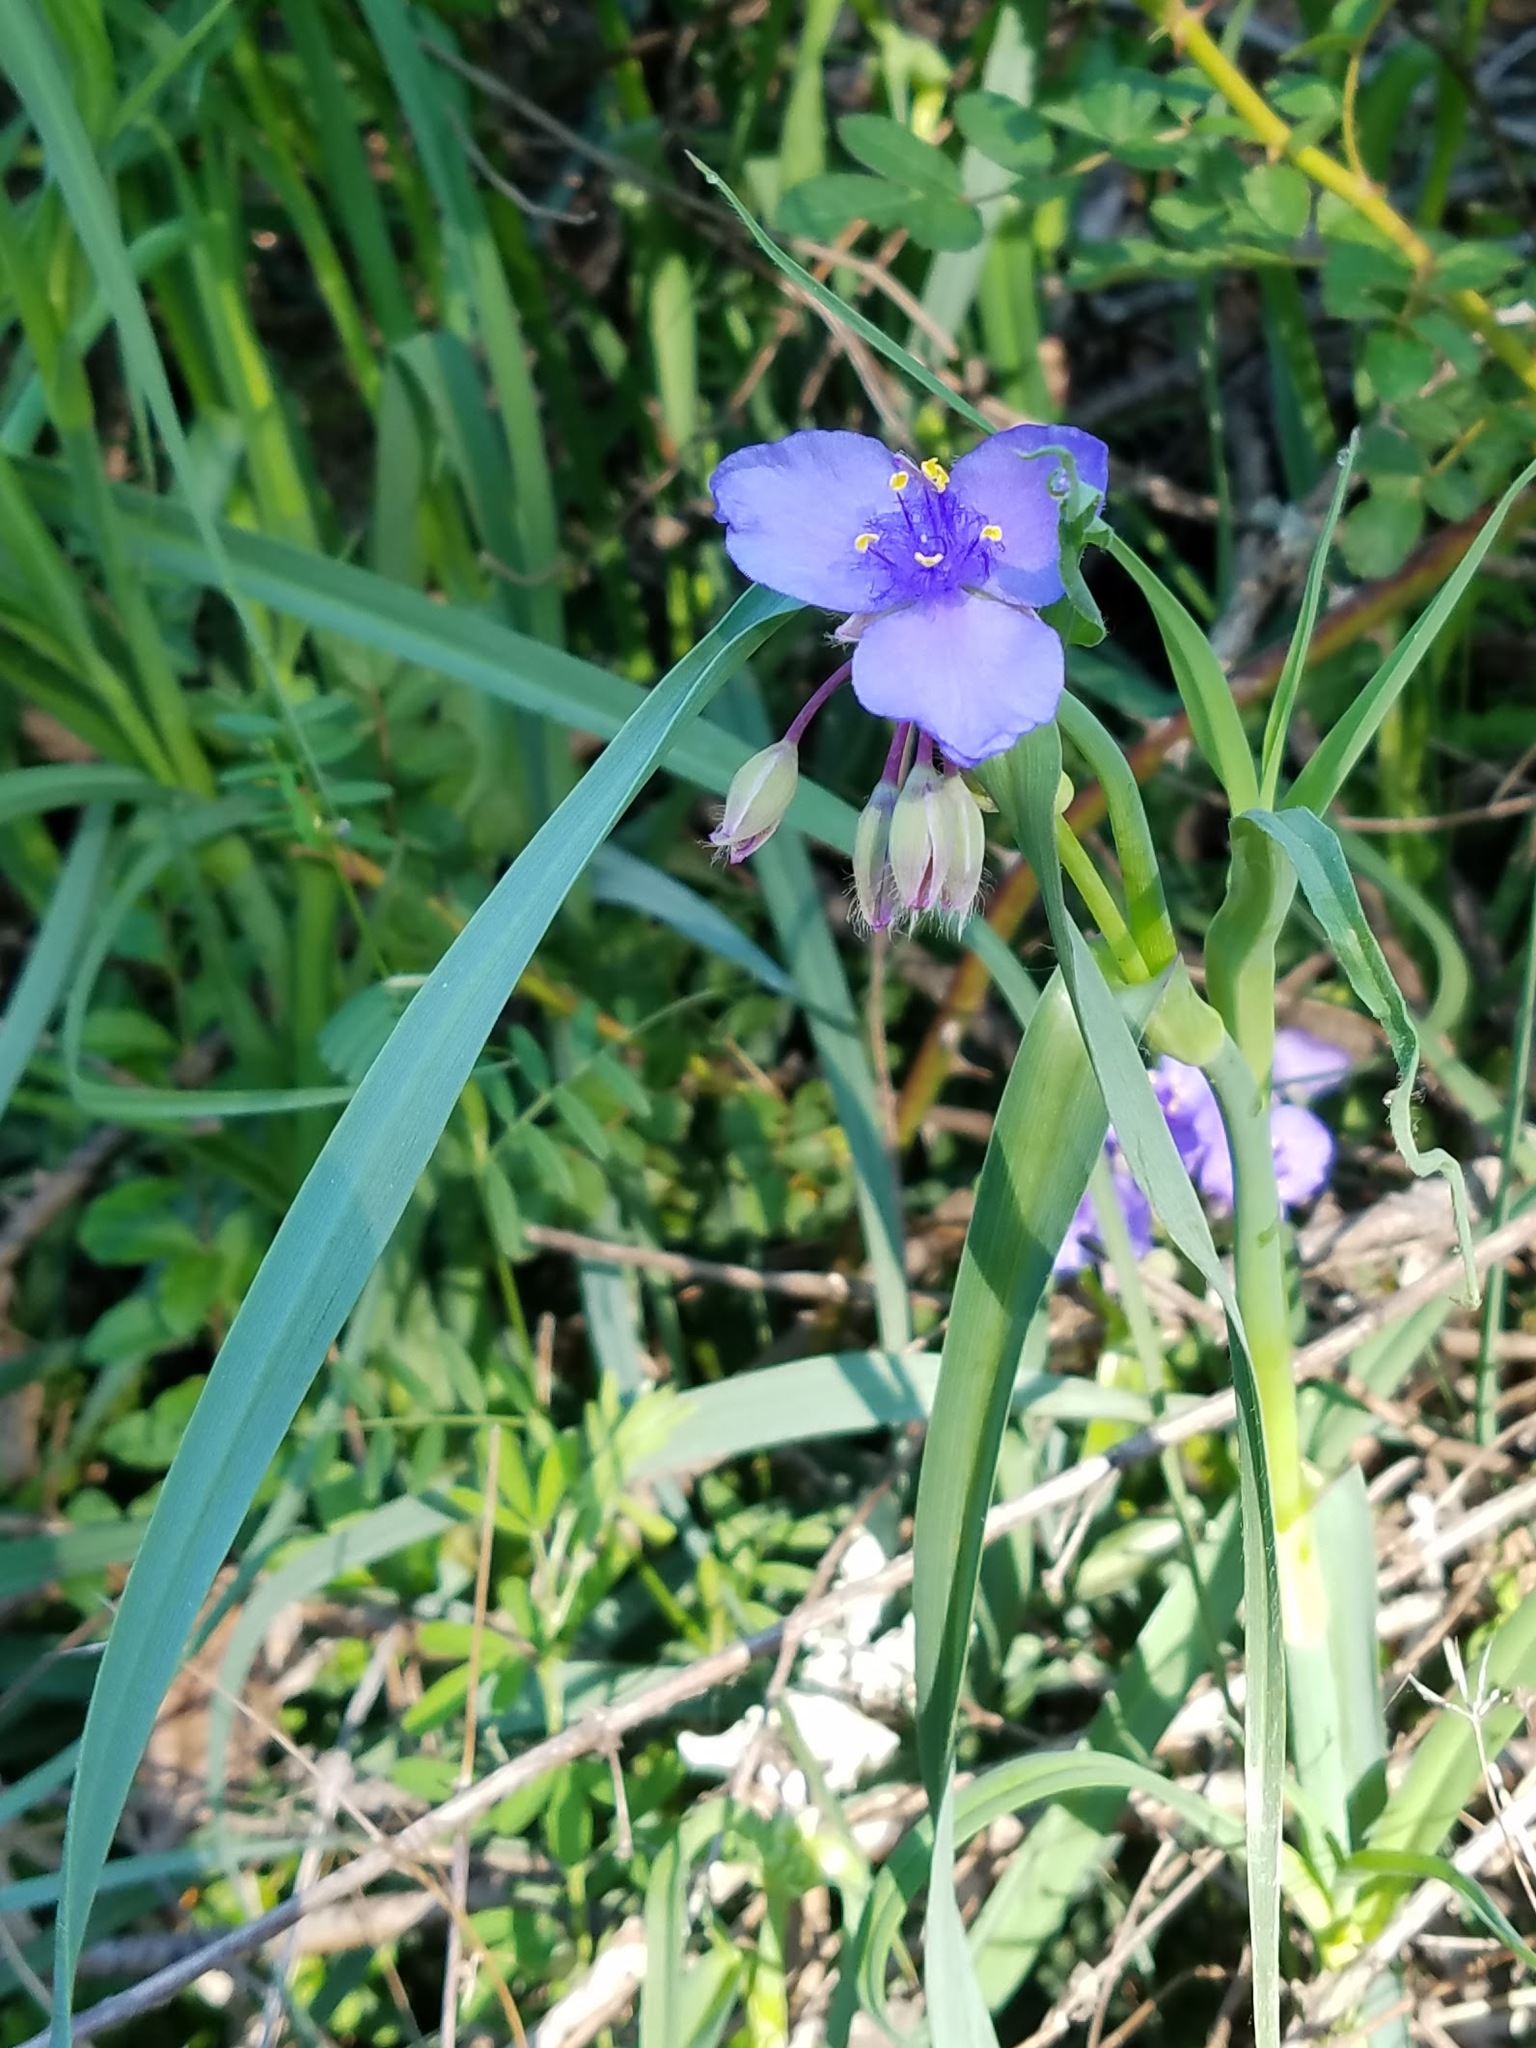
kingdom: Plantae
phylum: Tracheophyta
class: Liliopsida
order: Commelinales
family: Commelinaceae
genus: Tradescantia
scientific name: Tradescantia ohiensis
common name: Ohio spiderwort
